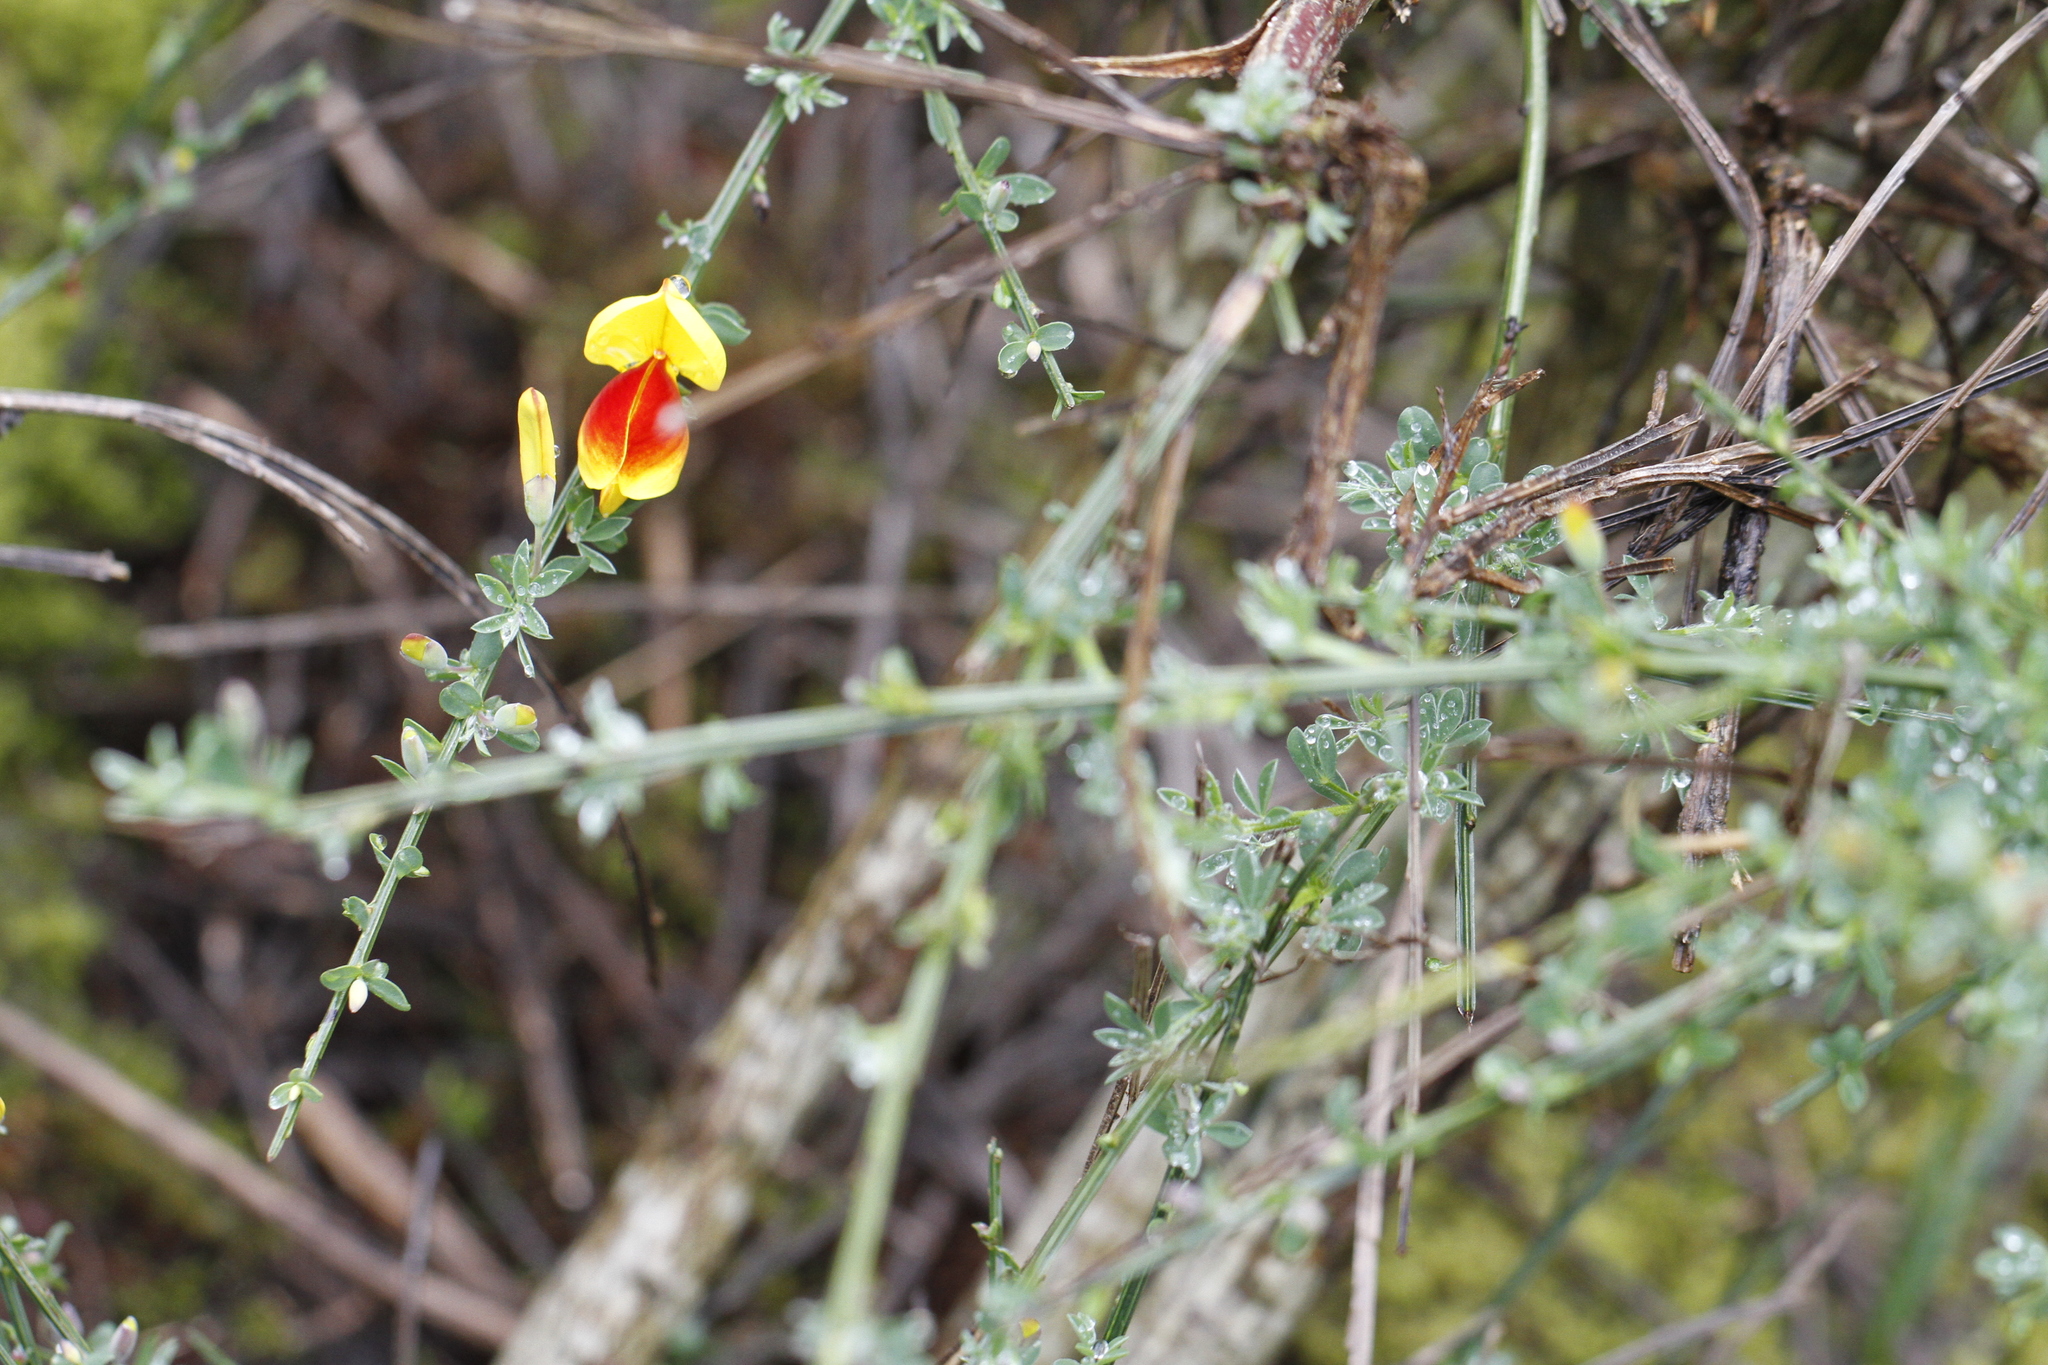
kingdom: Plantae
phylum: Tracheophyta
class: Magnoliopsida
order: Fabales
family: Fabaceae
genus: Cytisus
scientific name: Cytisus scoparius
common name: Scotch broom
